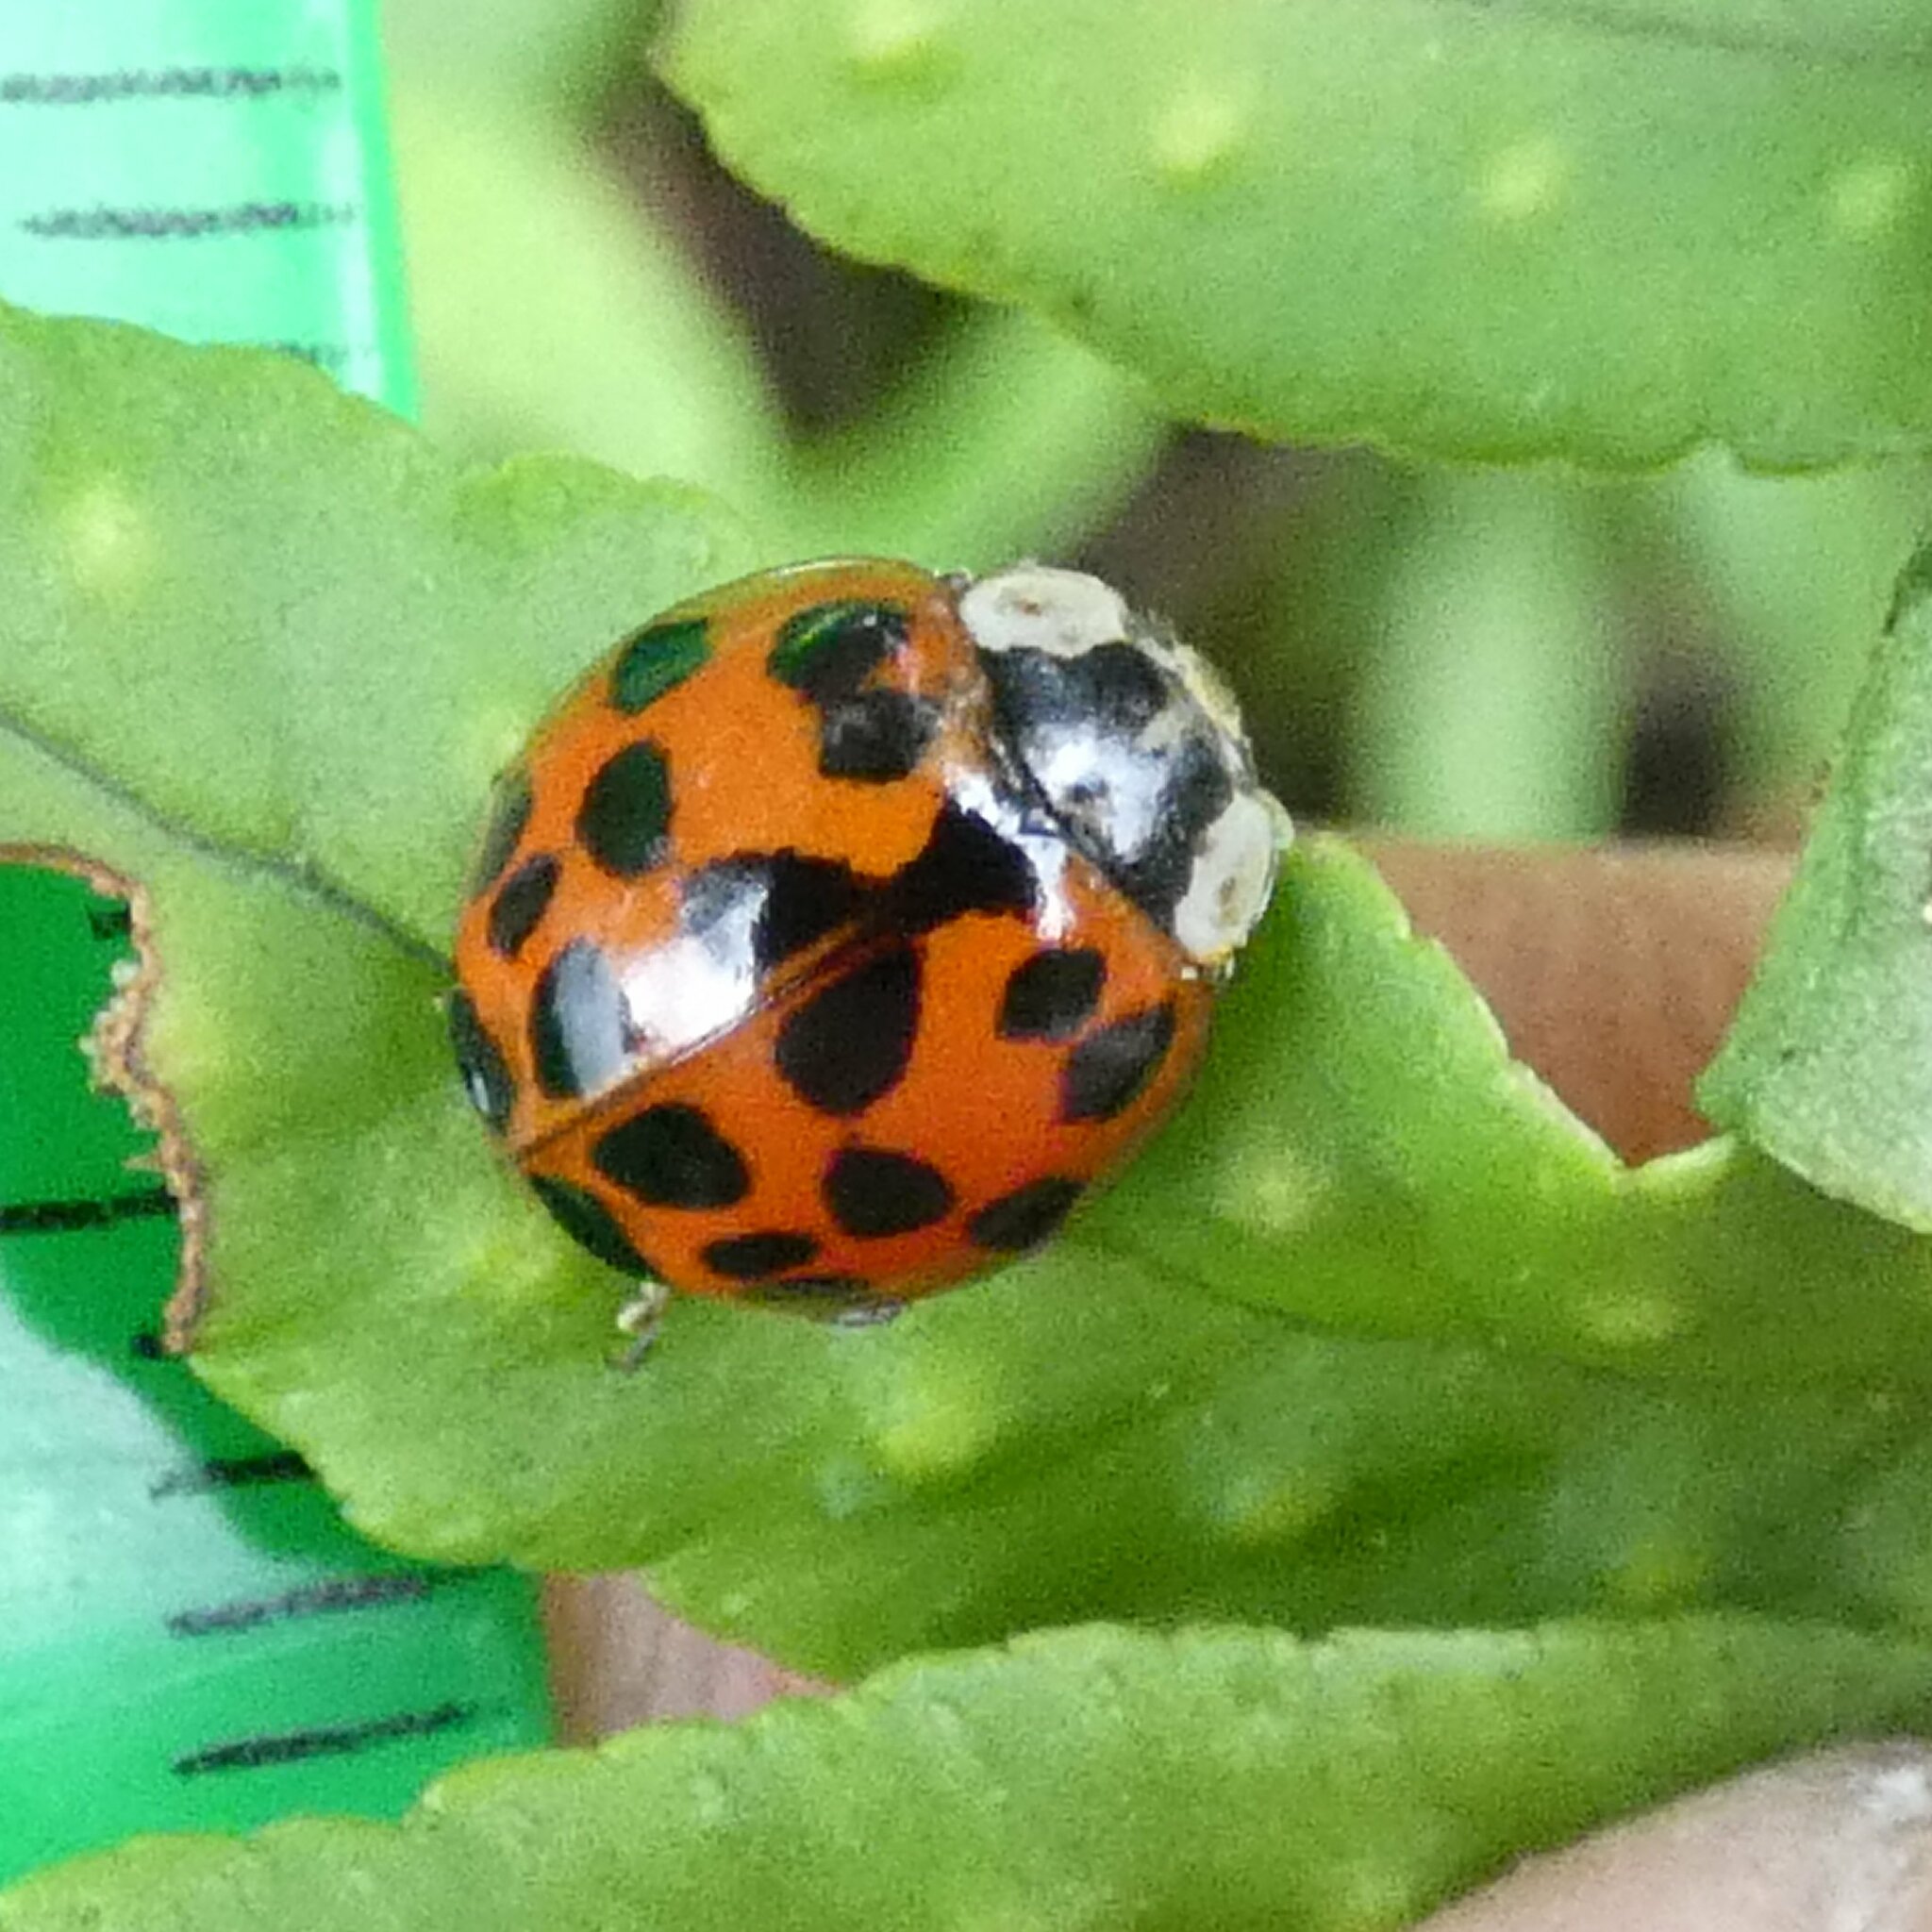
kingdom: Animalia
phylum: Arthropoda
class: Insecta
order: Coleoptera
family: Coccinellidae
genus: Harmonia
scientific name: Harmonia axyridis
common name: Harlequin ladybird
